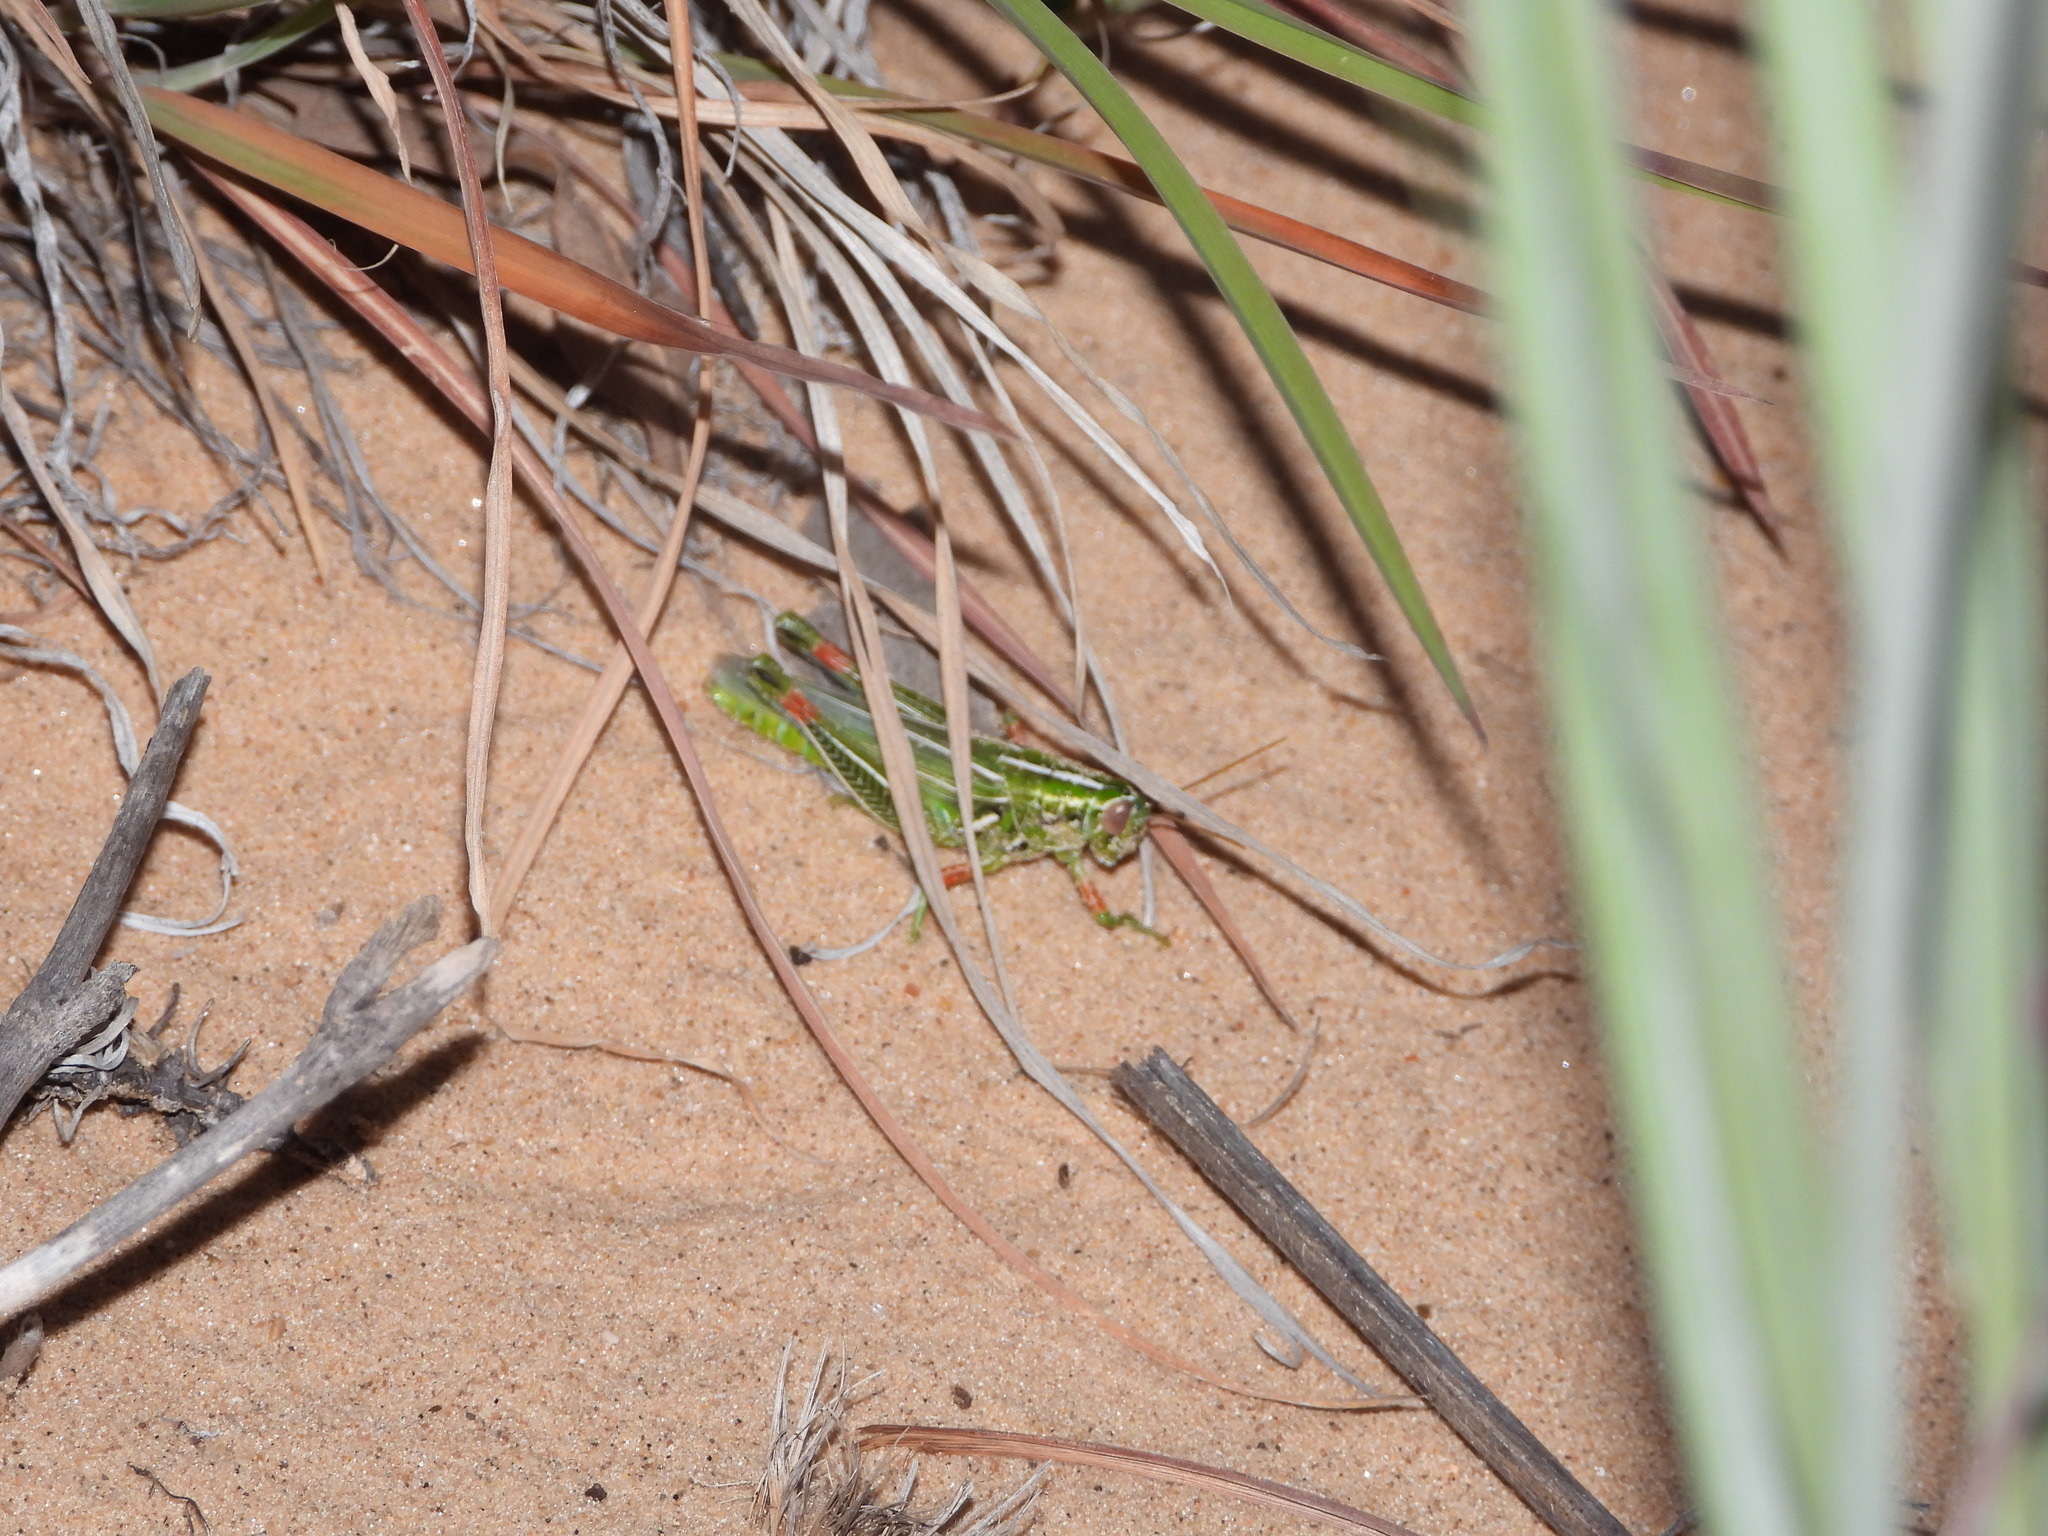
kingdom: Animalia
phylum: Arthropoda
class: Insecta
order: Orthoptera
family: Acrididae
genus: Hesperotettix
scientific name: Hesperotettix viridis
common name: Meadow purple-striped grasshopper
